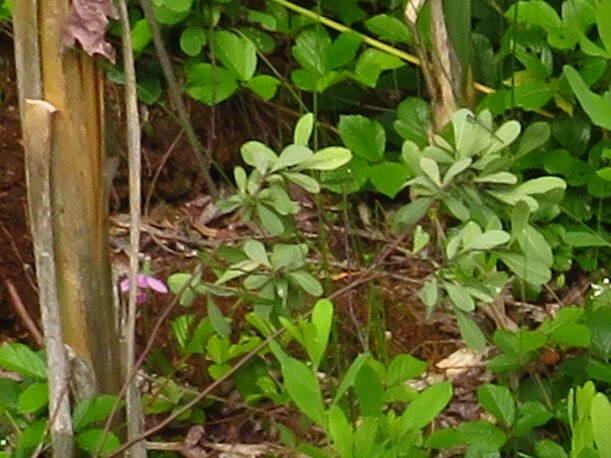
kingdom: Plantae
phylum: Tracheophyta
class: Liliopsida
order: Asparagales
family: Orchidaceae
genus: Pogonia
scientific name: Pogonia ophioglossoides
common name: Rose pogonia
